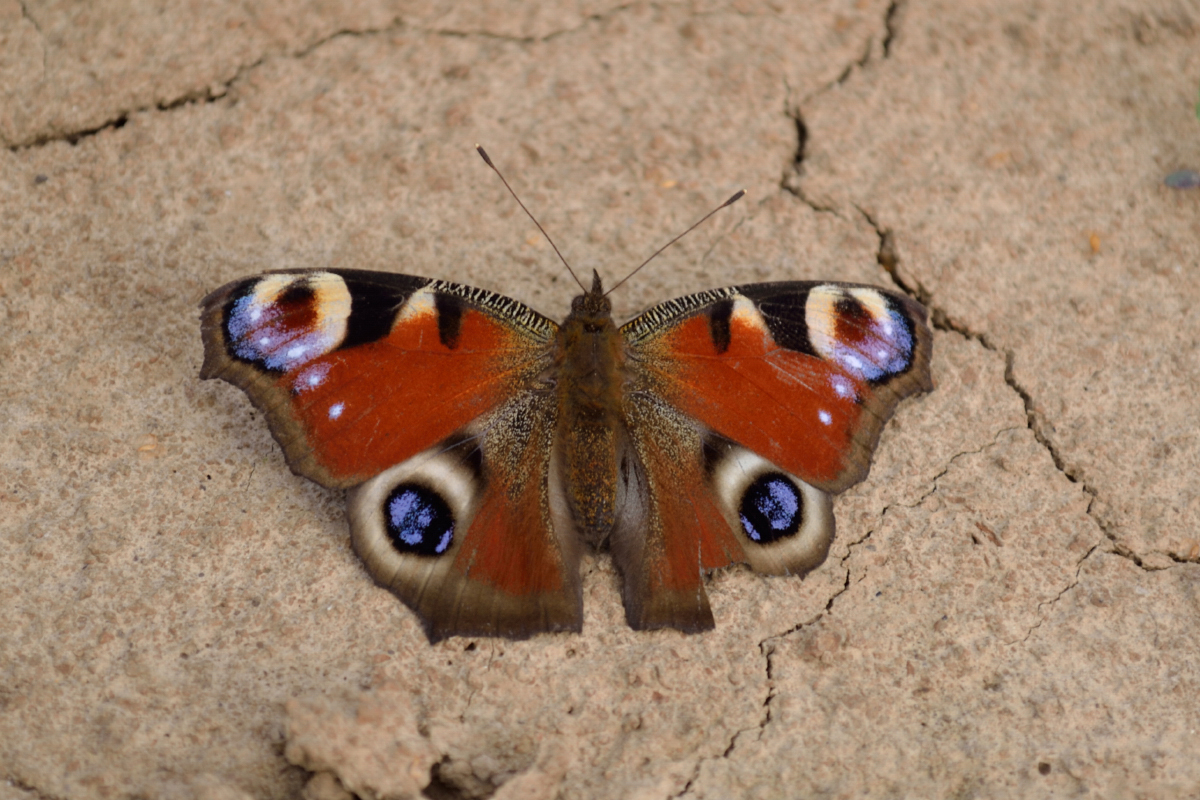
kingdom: Animalia
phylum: Arthropoda
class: Insecta
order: Lepidoptera
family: Nymphalidae
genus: Aglais
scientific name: Aglais io
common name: Peacock
